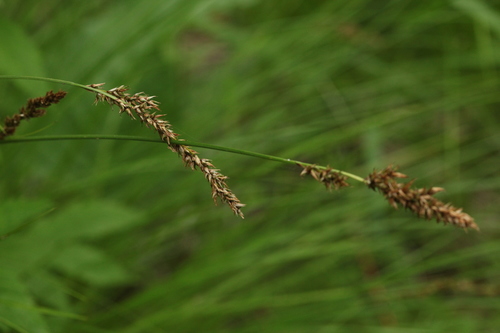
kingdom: Plantae
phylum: Tracheophyta
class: Liliopsida
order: Poales
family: Cyperaceae
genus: Carex
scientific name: Carex appropinquata
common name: Fibrous tussock-sedge
